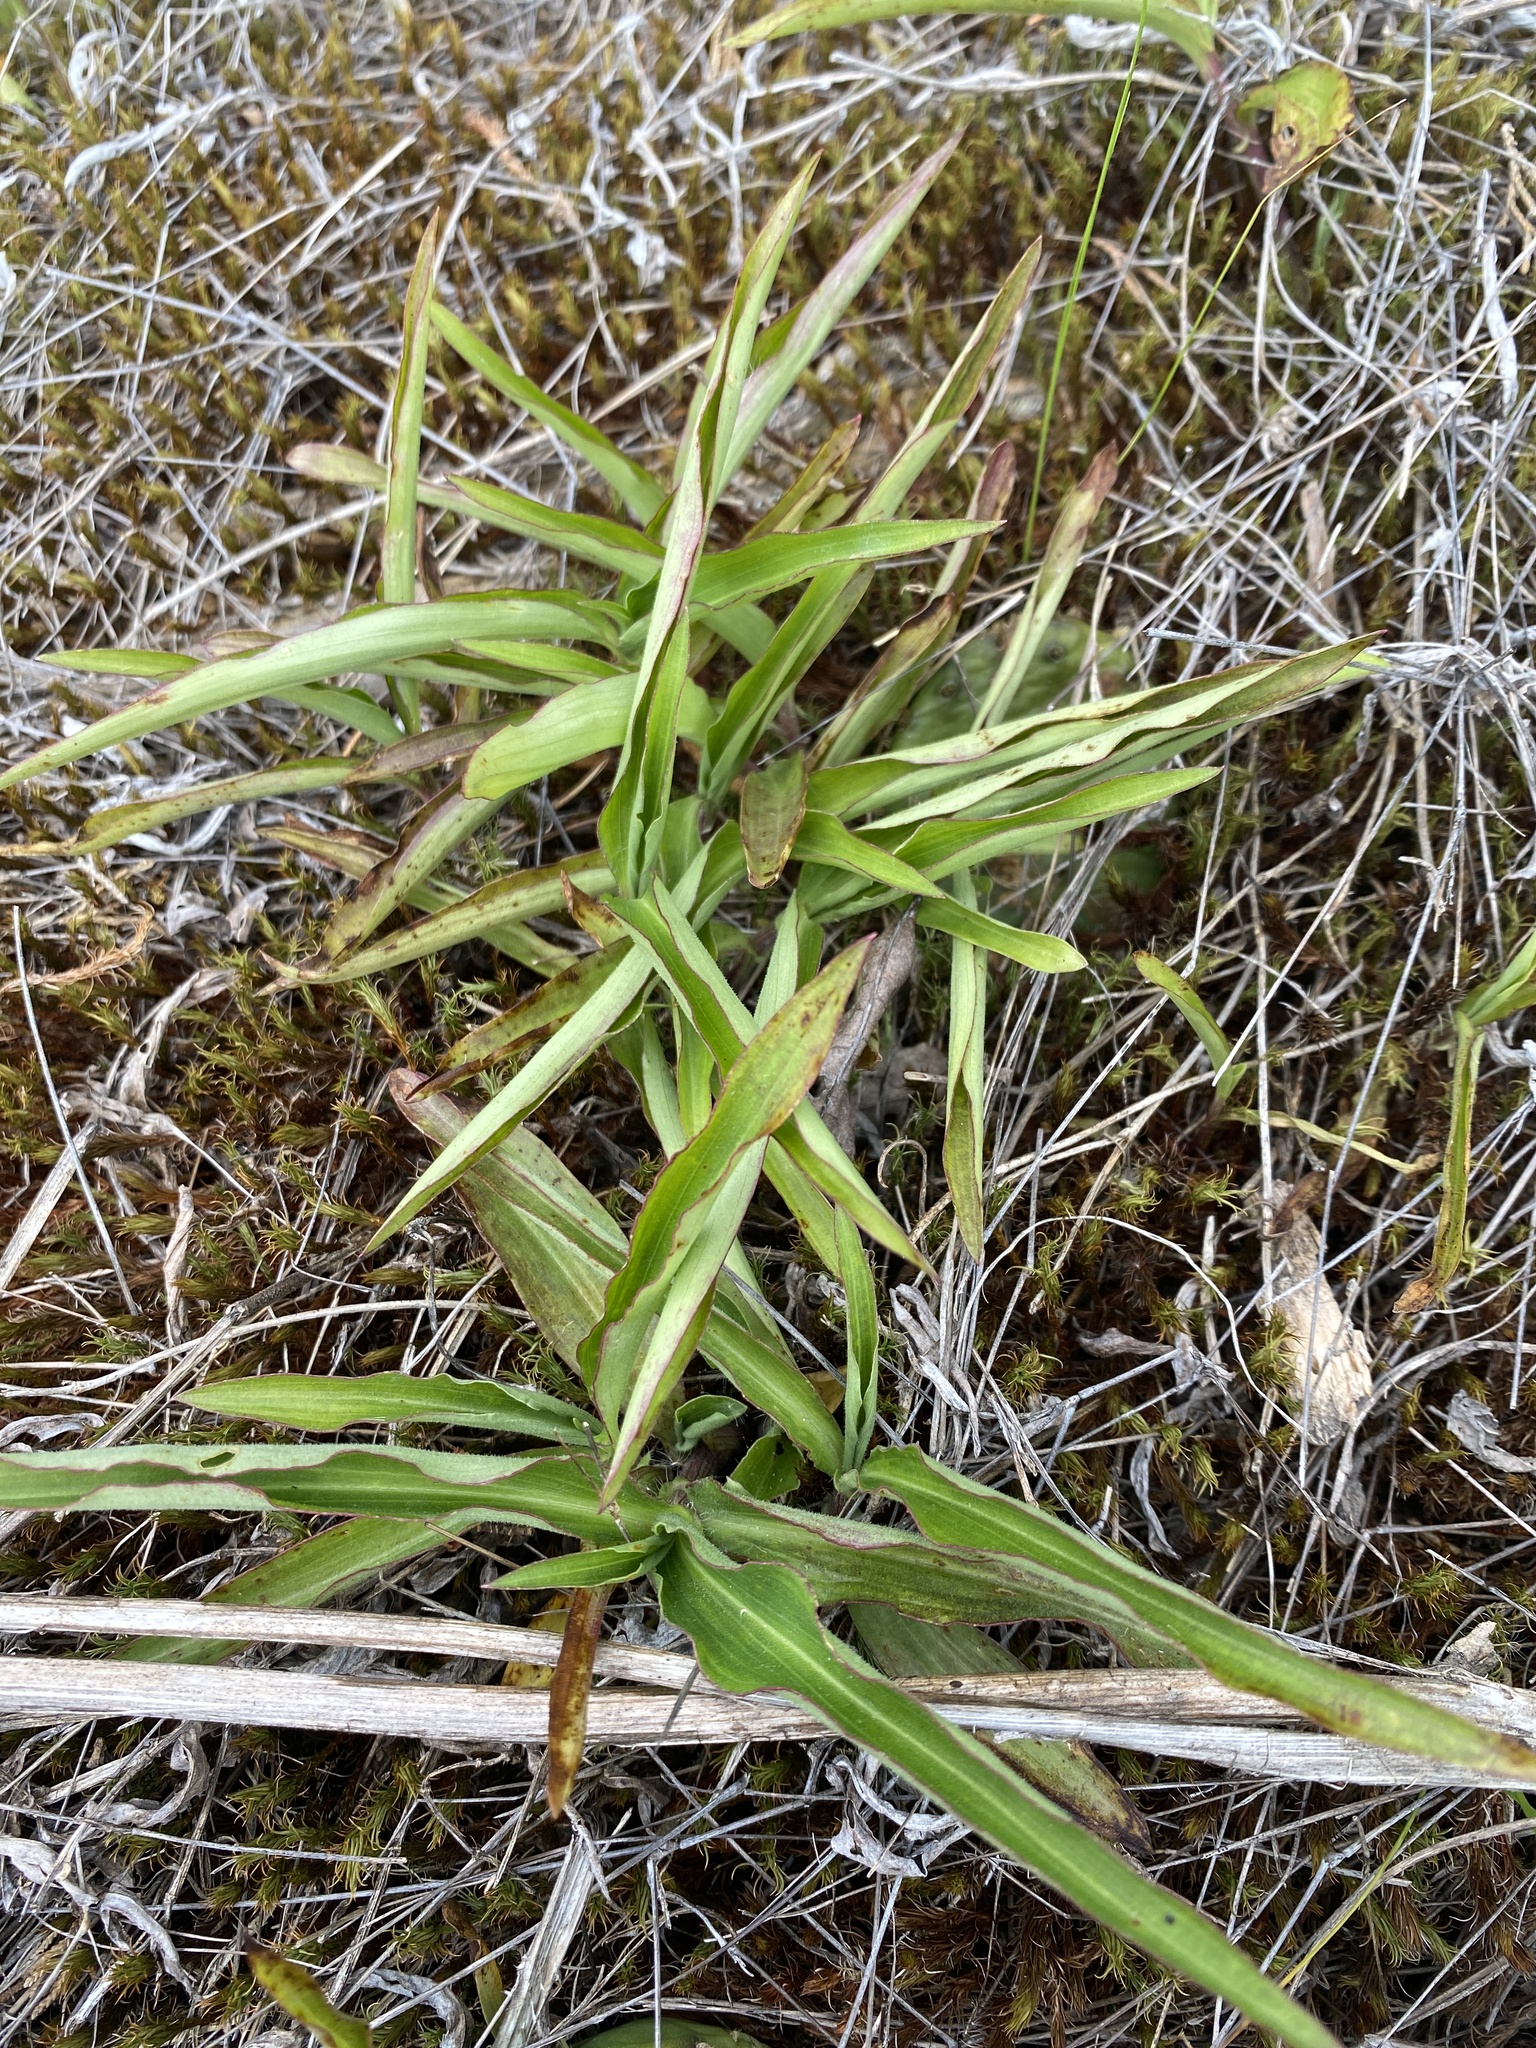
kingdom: Plantae
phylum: Tracheophyta
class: Liliopsida
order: Commelinales
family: Commelinaceae
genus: Commelina
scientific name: Commelina erecta
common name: Blousel blommetjie
